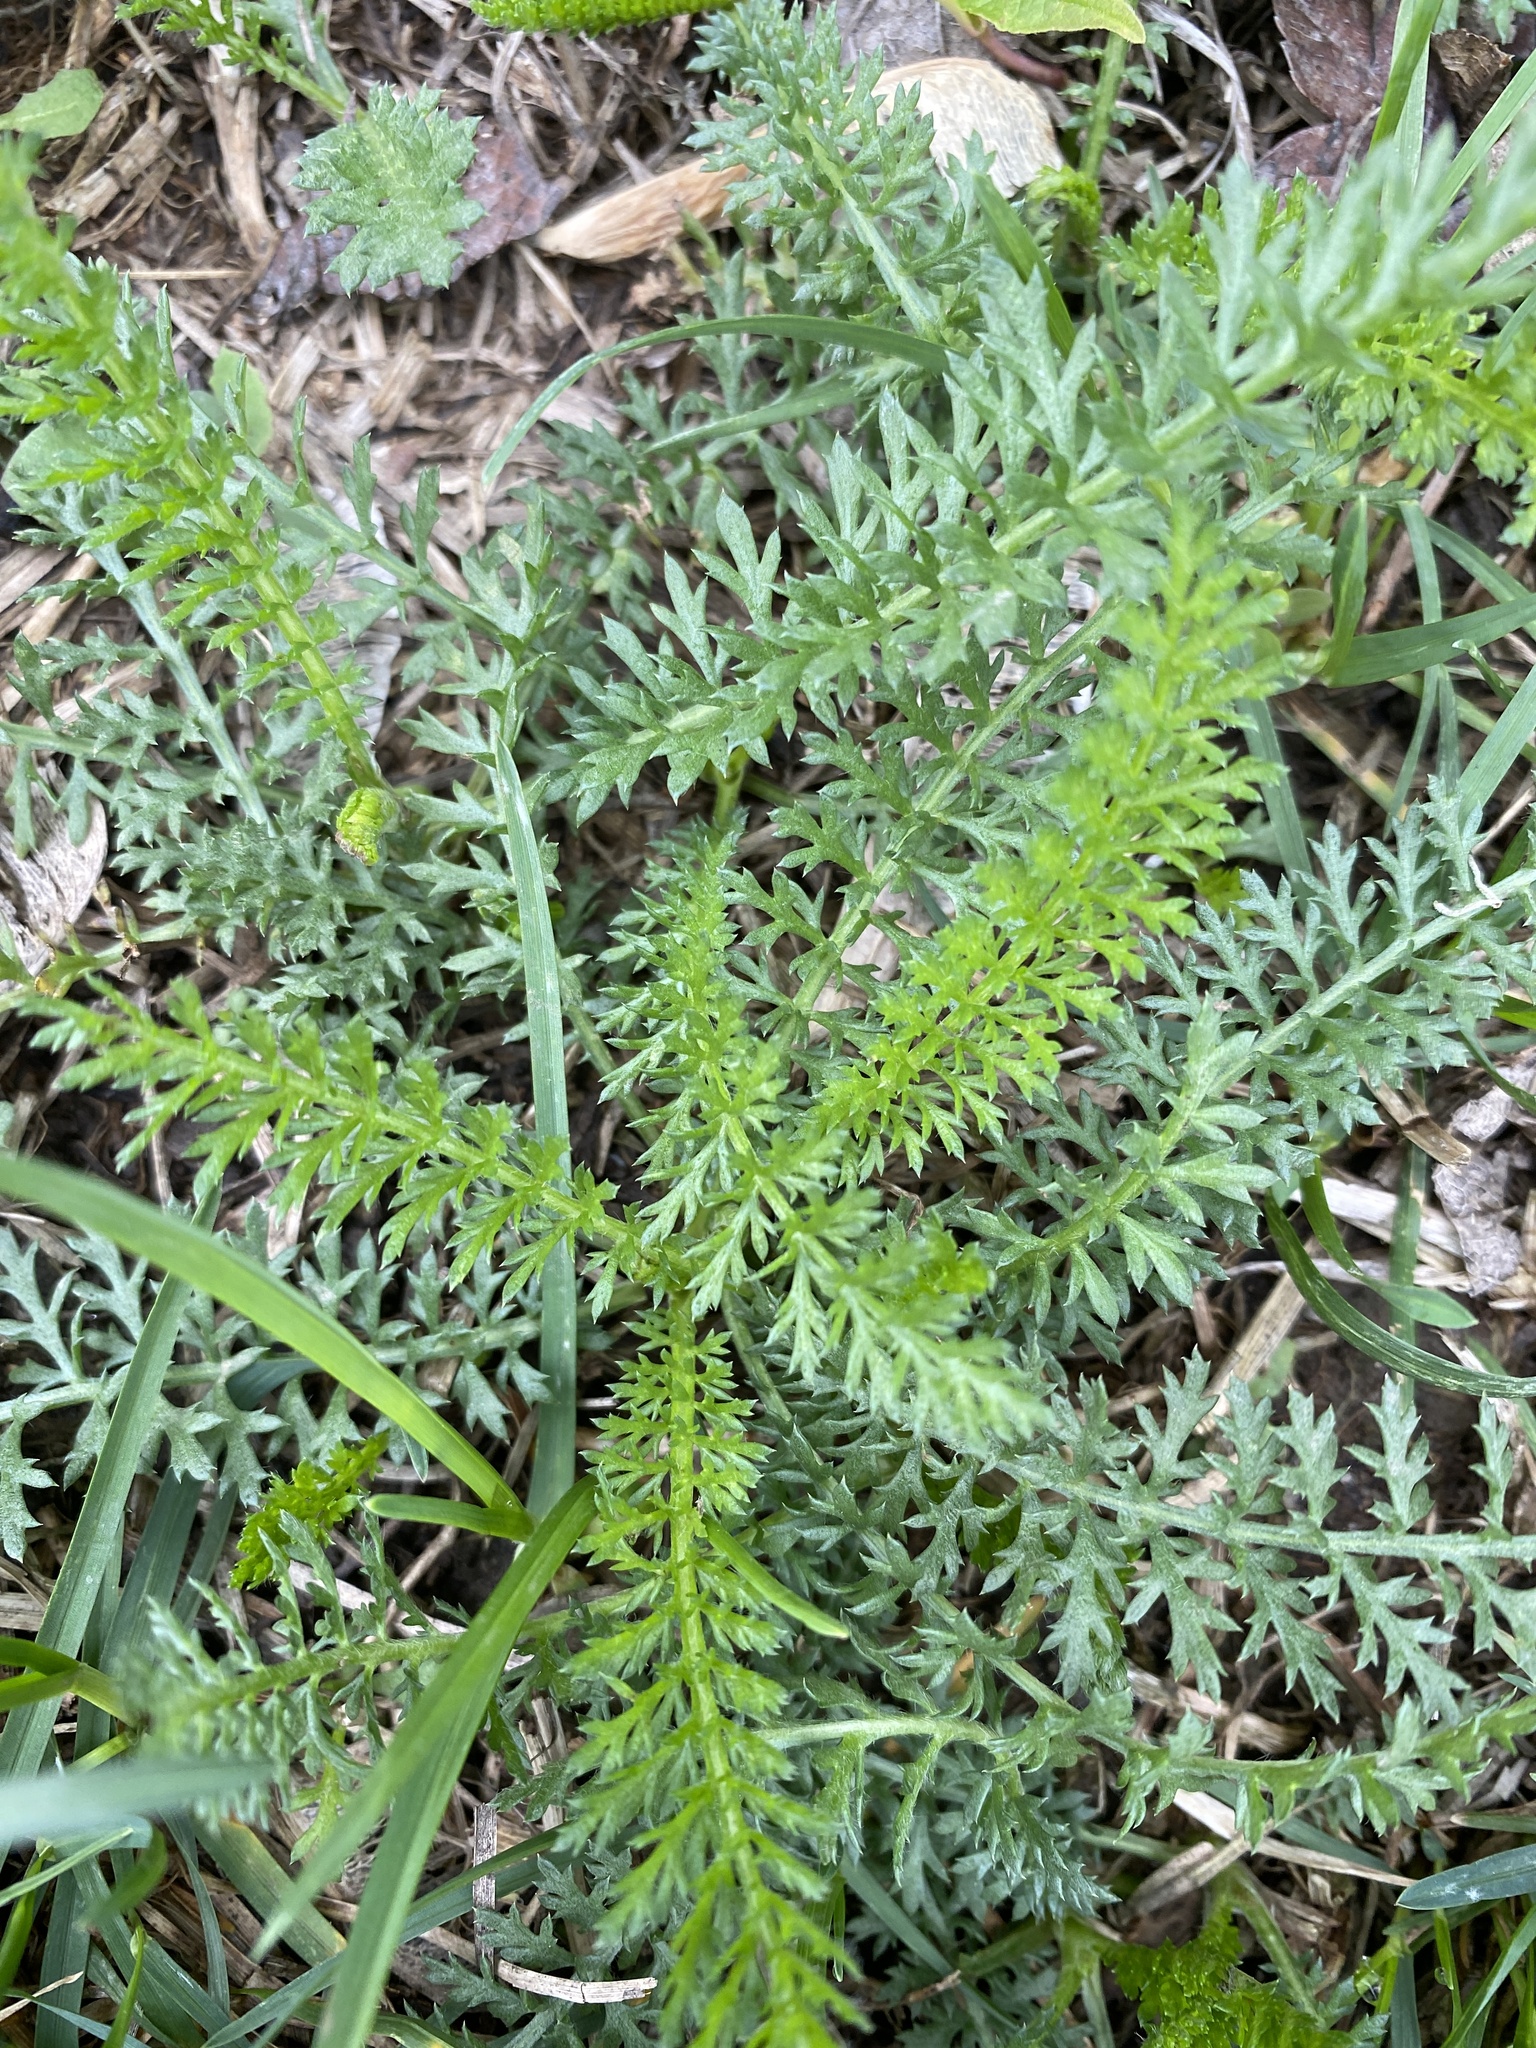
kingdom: Plantae
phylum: Tracheophyta
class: Magnoliopsida
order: Asterales
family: Asteraceae
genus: Achillea
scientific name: Achillea millefolium
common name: Yarrow
